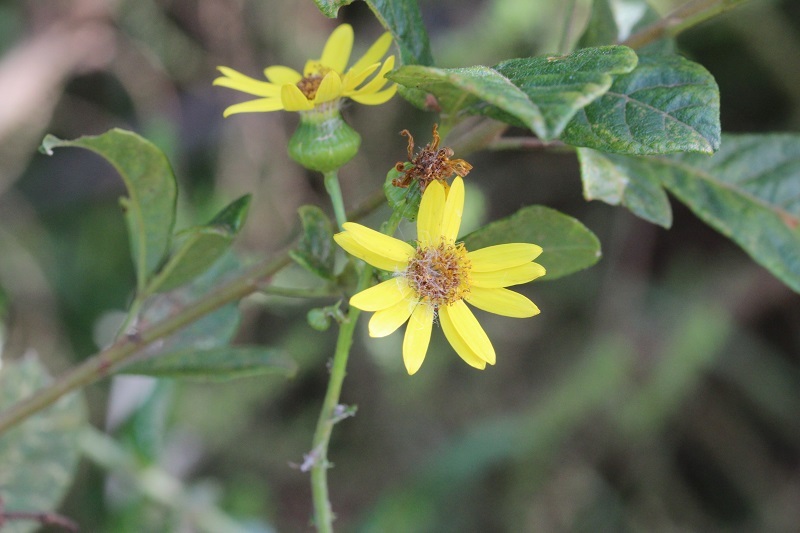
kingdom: Plantae
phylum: Tracheophyta
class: Magnoliopsida
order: Asterales
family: Asteraceae
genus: Senecio
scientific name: Senecio ilicifolius
